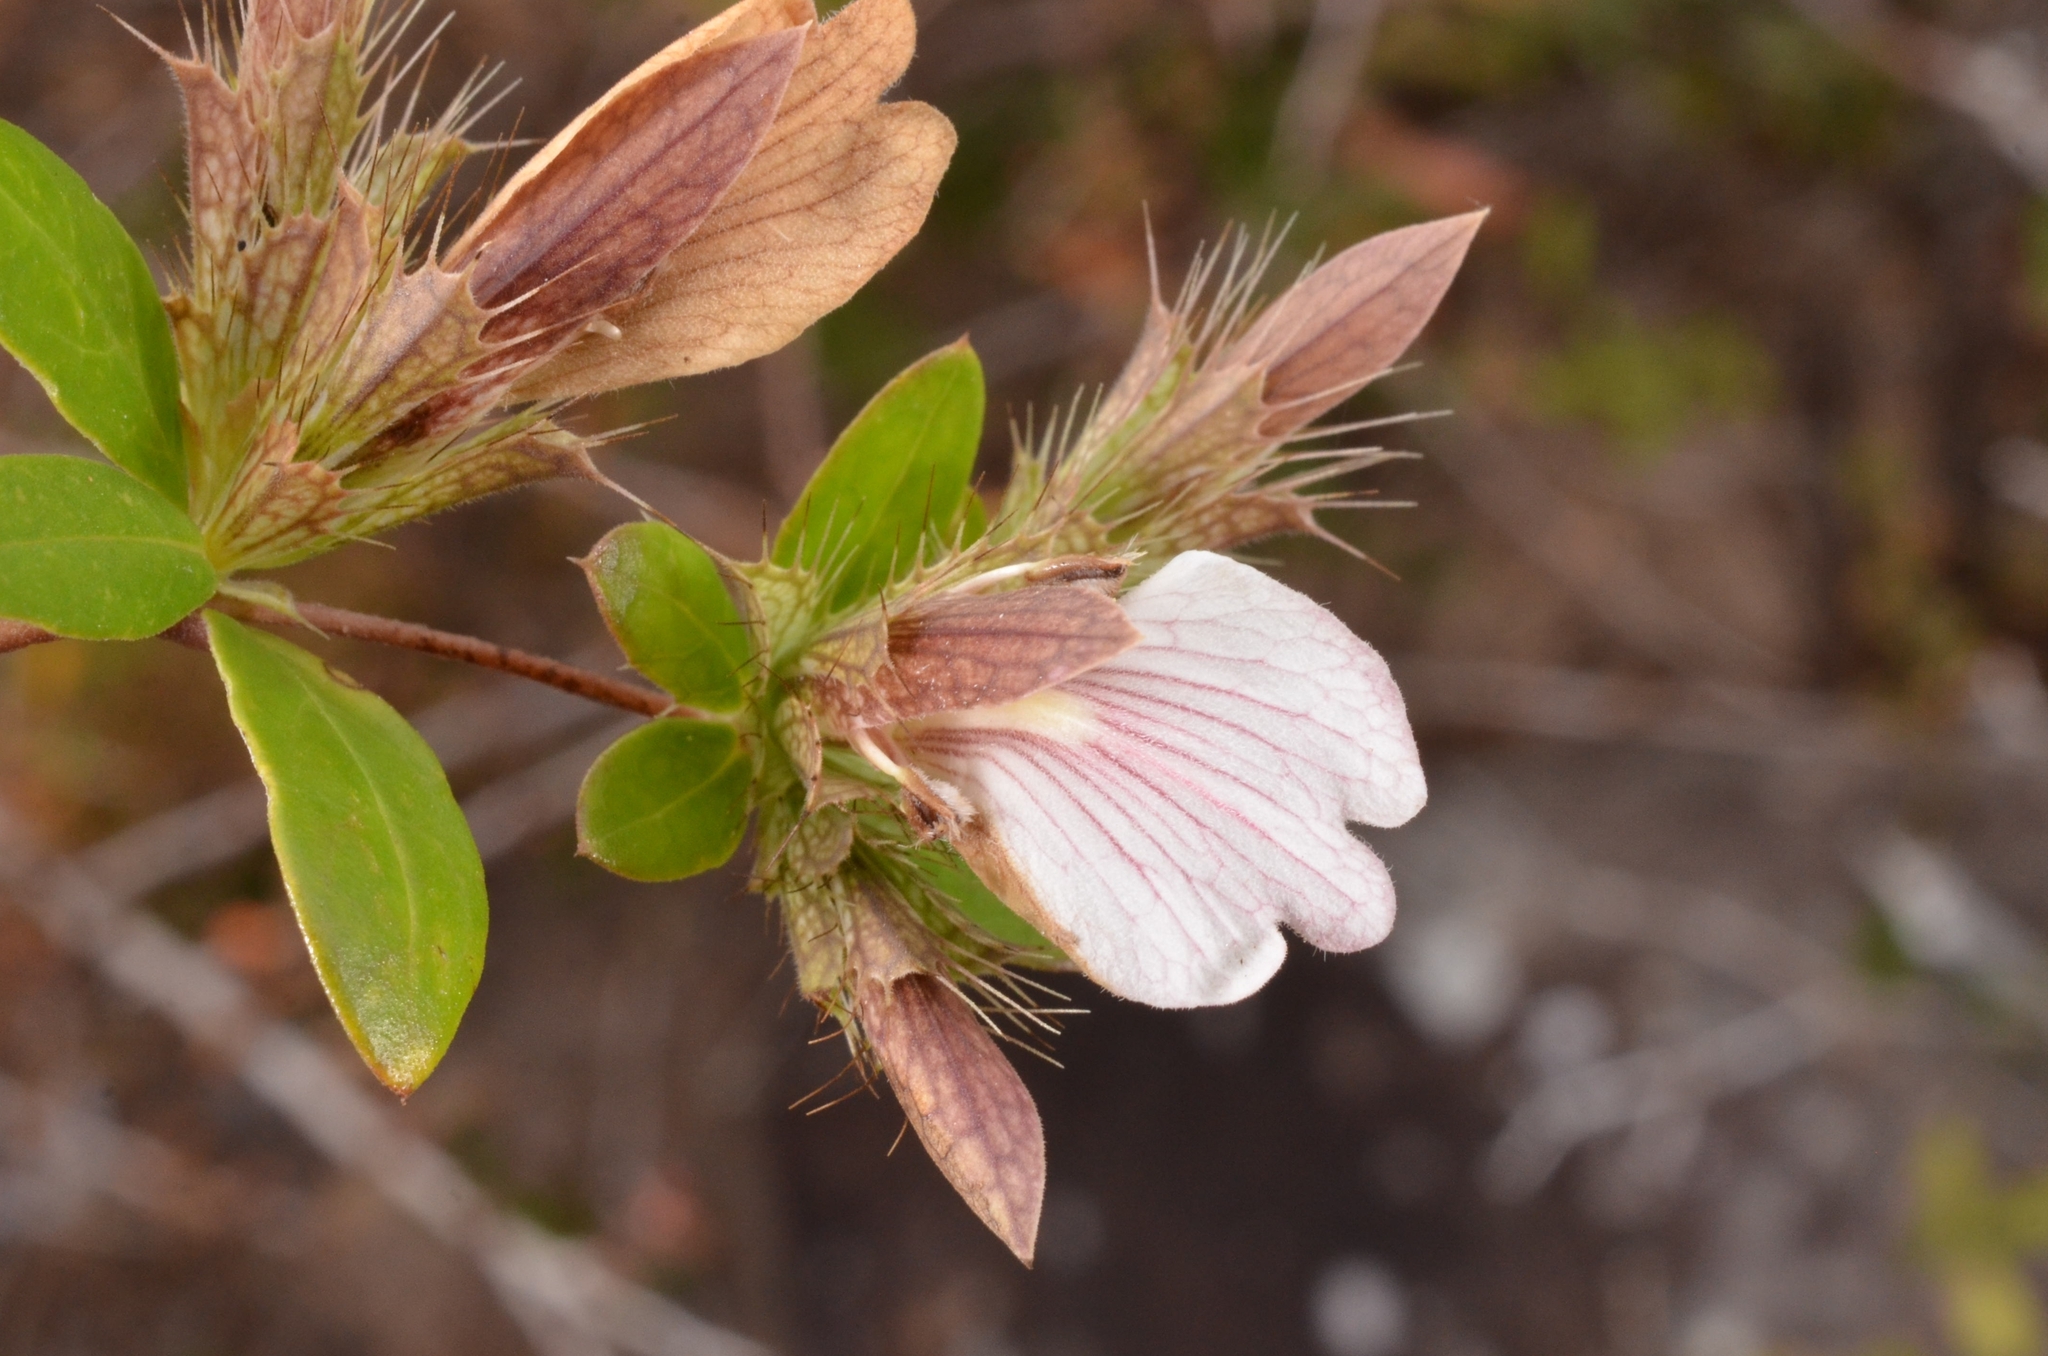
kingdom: Plantae
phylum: Tracheophyta
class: Magnoliopsida
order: Lamiales
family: Acanthaceae
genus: Blepharis
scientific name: Blepharis maderaspatensis
